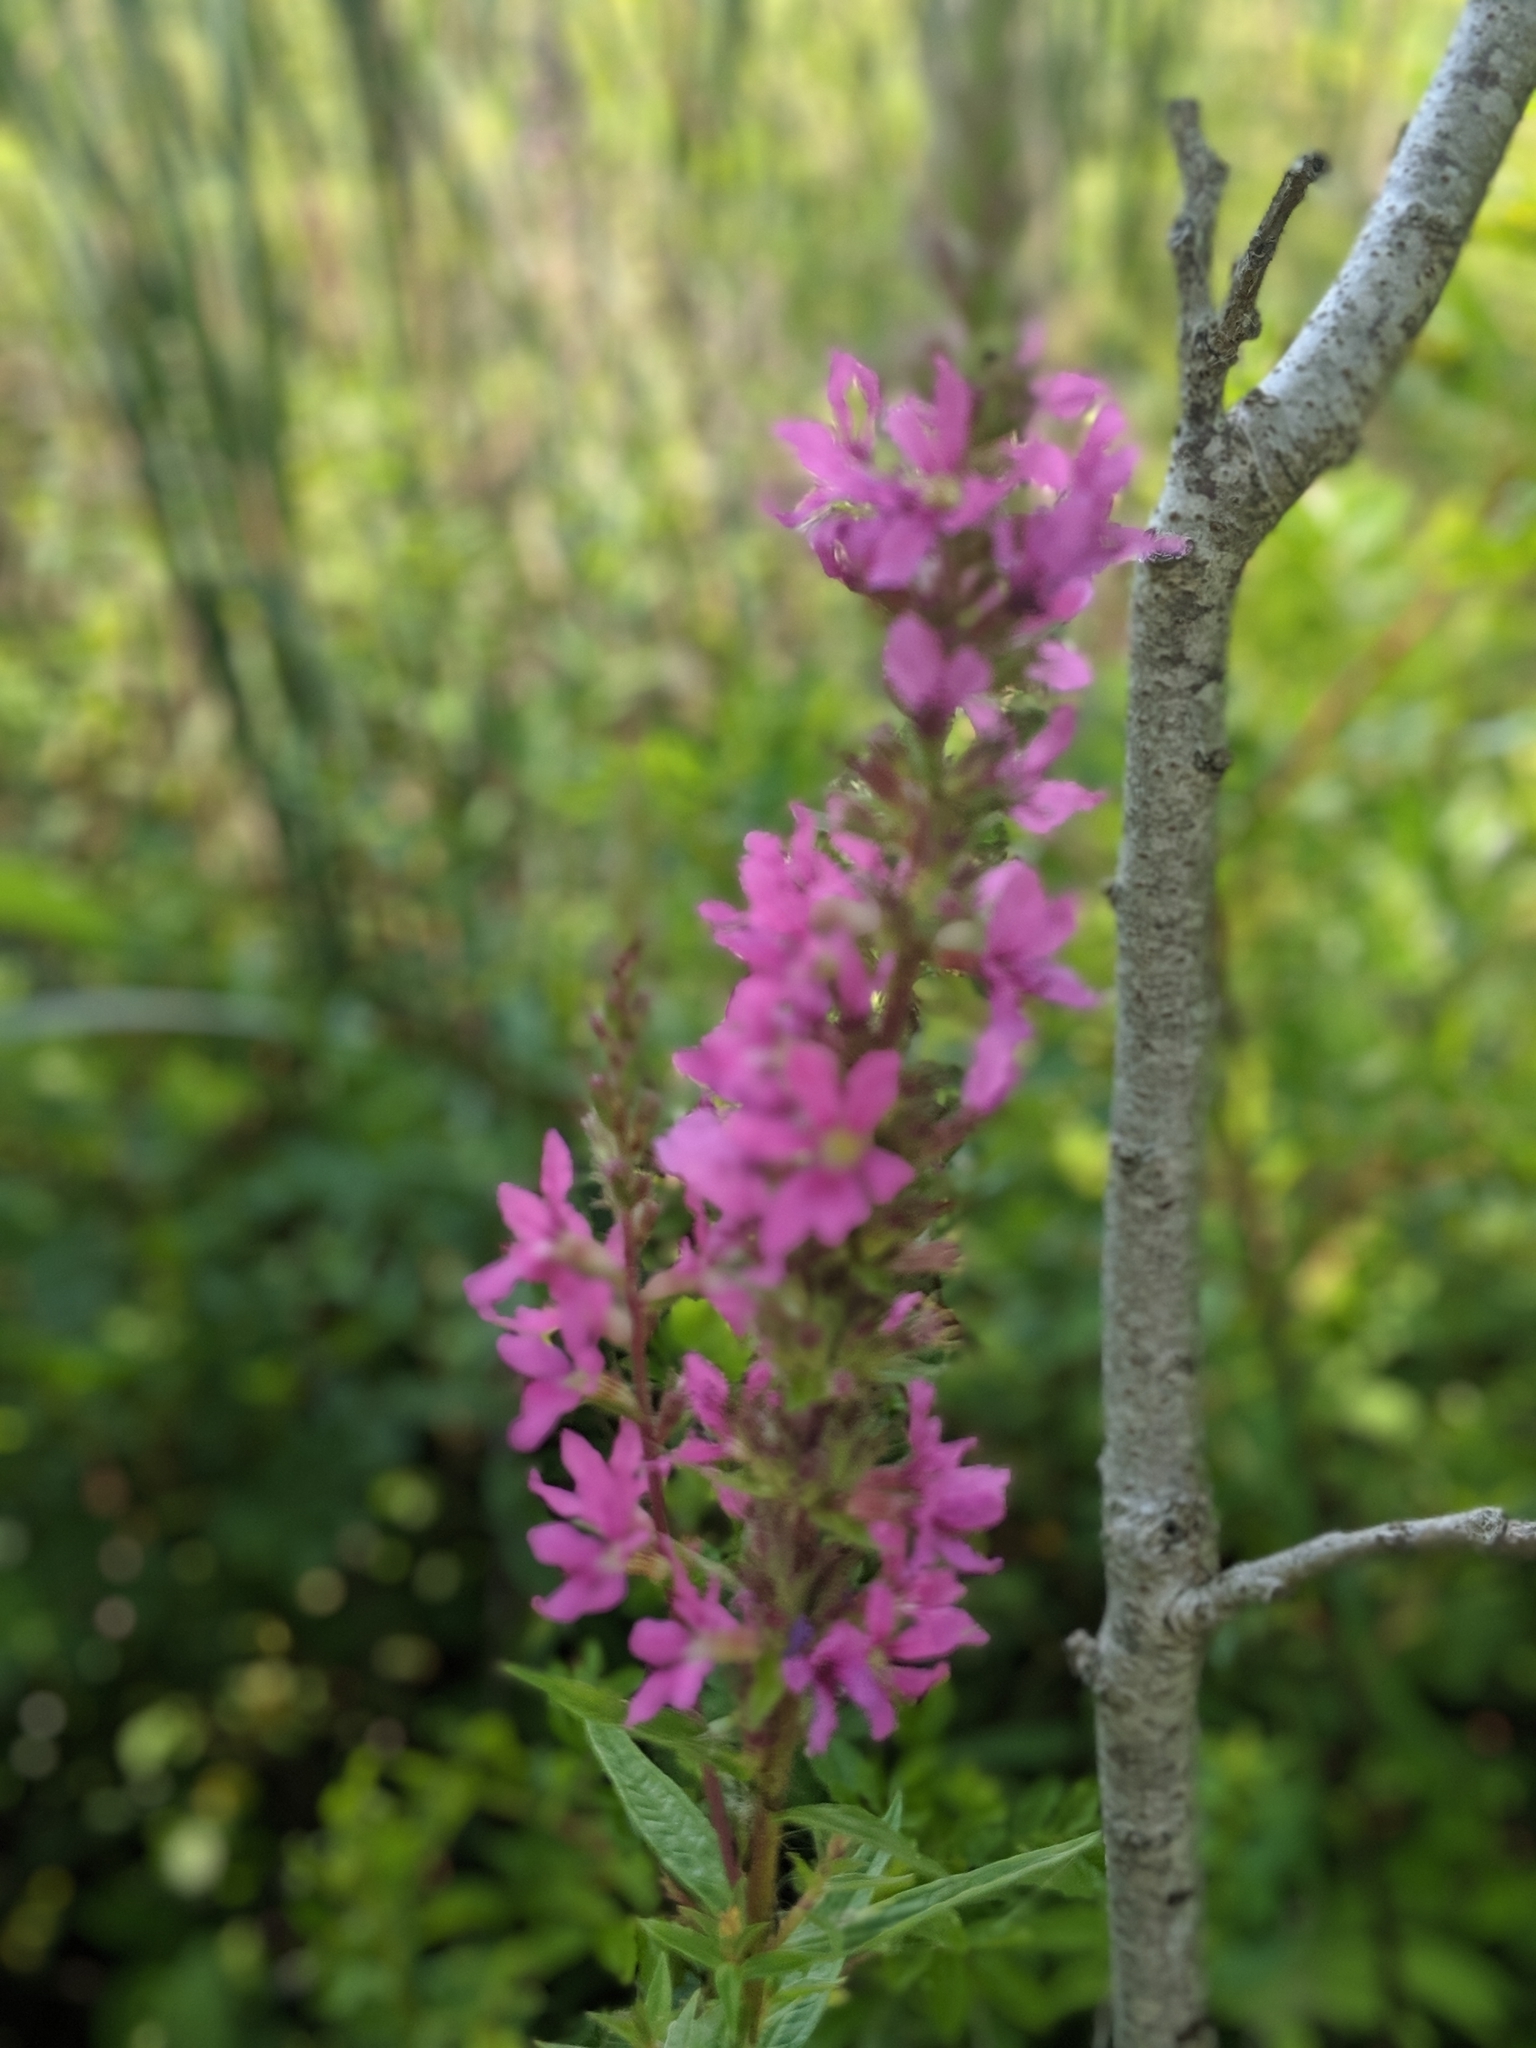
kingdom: Plantae
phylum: Tracheophyta
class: Magnoliopsida
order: Myrtales
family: Lythraceae
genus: Lythrum
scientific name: Lythrum salicaria
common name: Purple loosestrife
